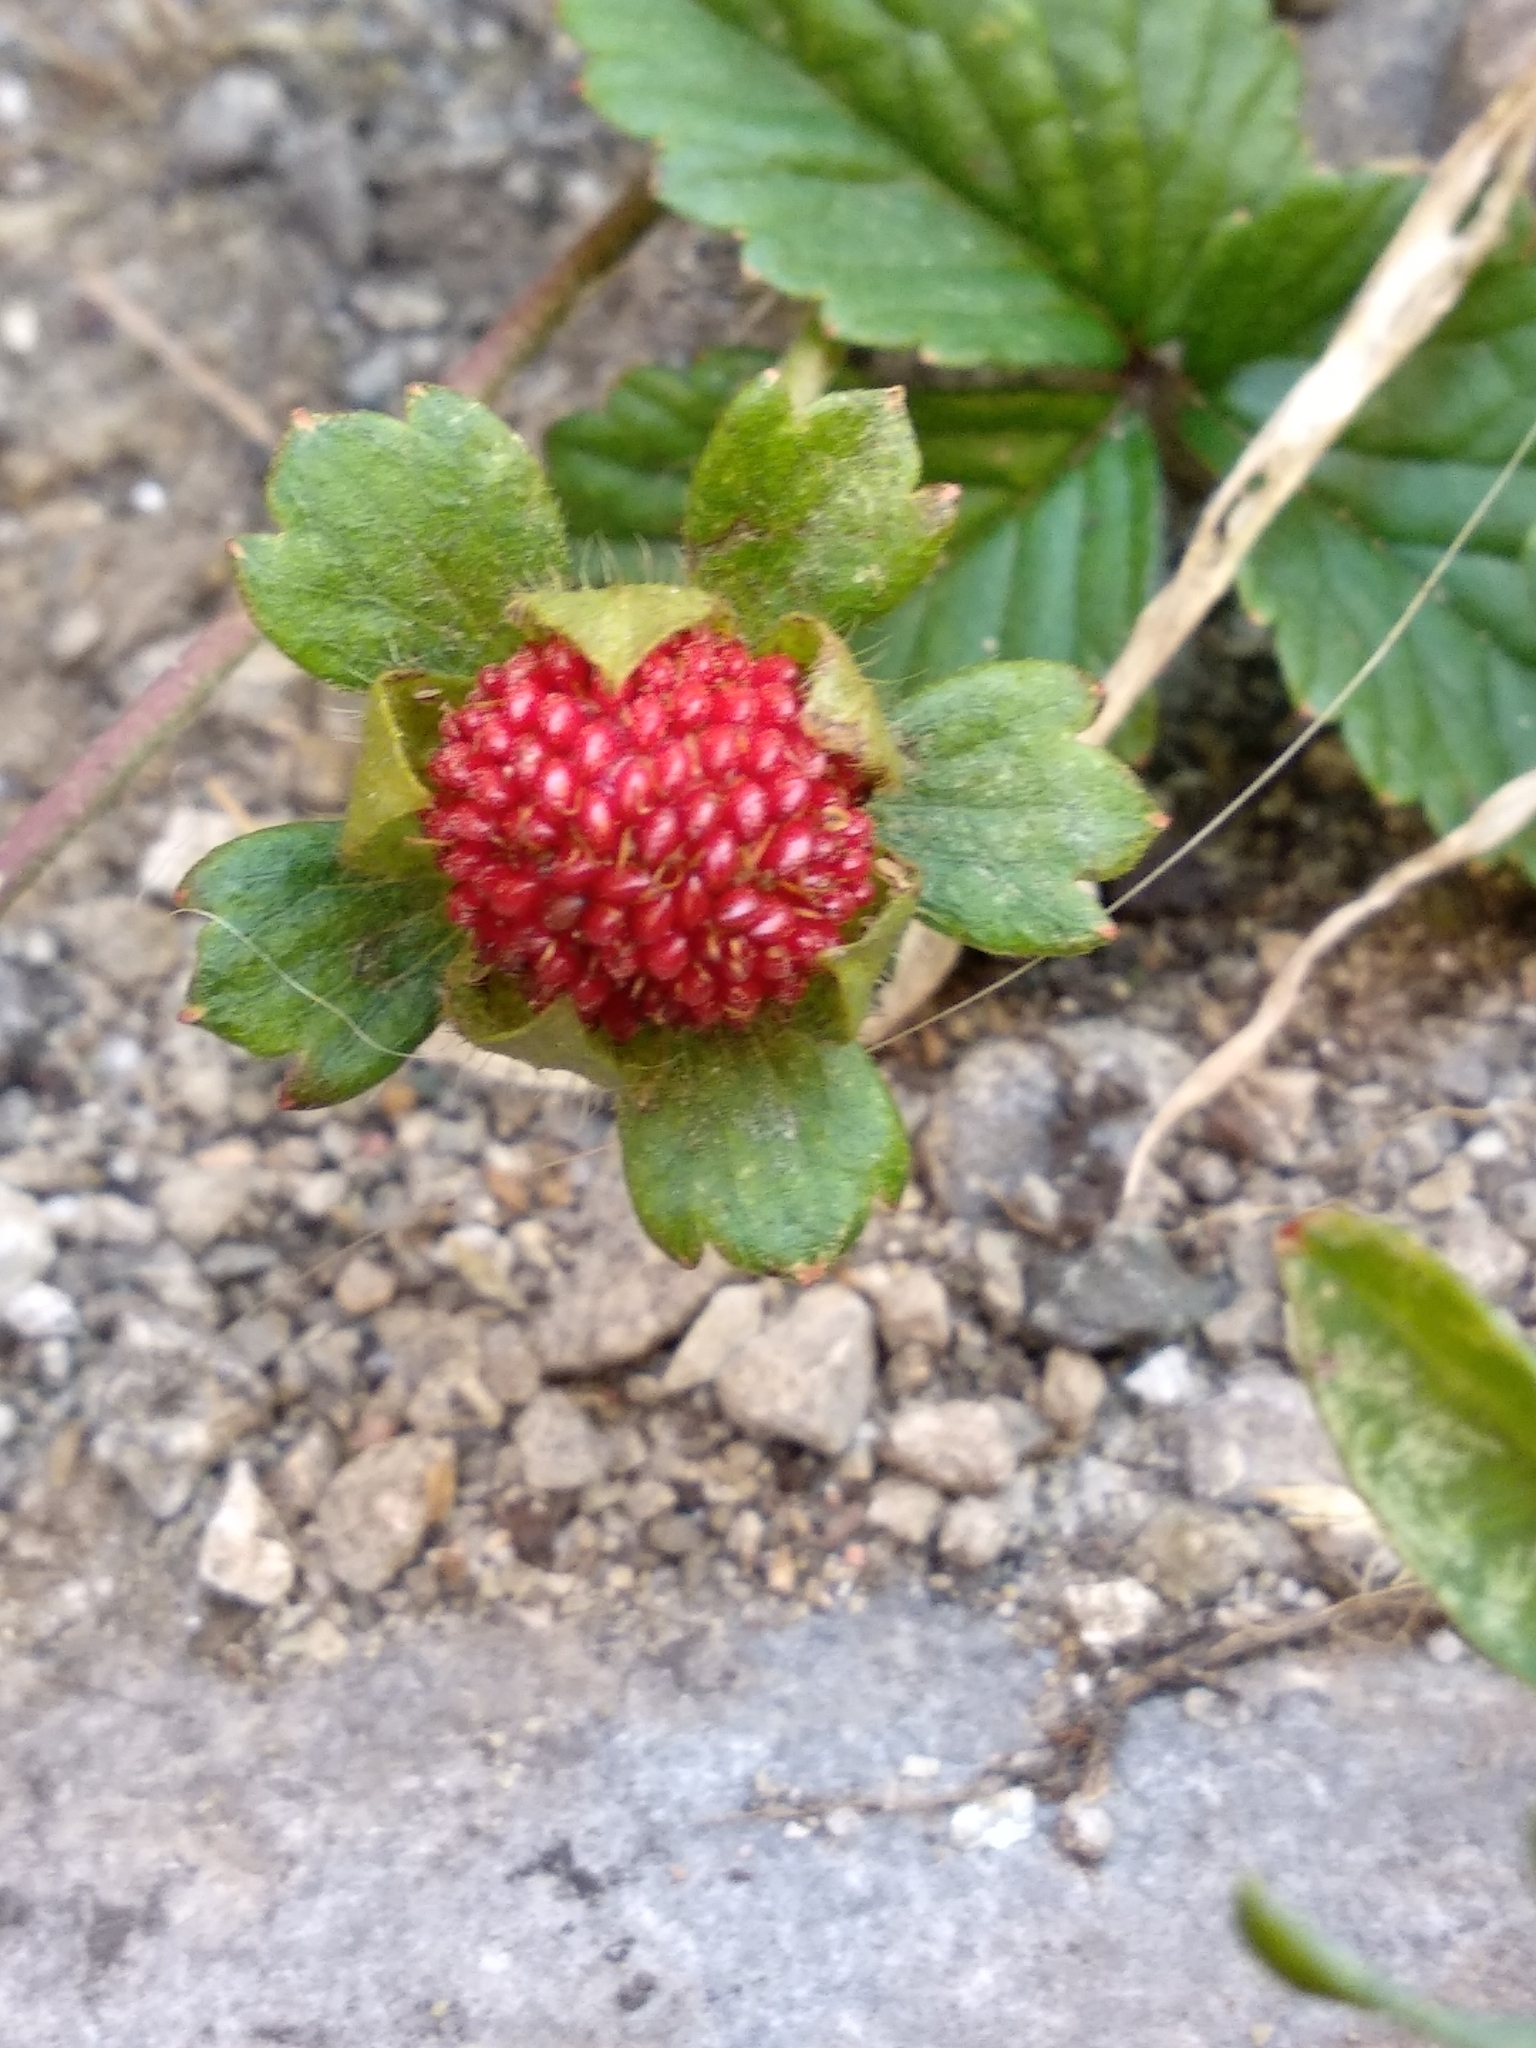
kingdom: Plantae
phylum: Tracheophyta
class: Magnoliopsida
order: Rosales
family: Rosaceae
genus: Potentilla
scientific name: Potentilla indica
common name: Yellow-flowered strawberry
